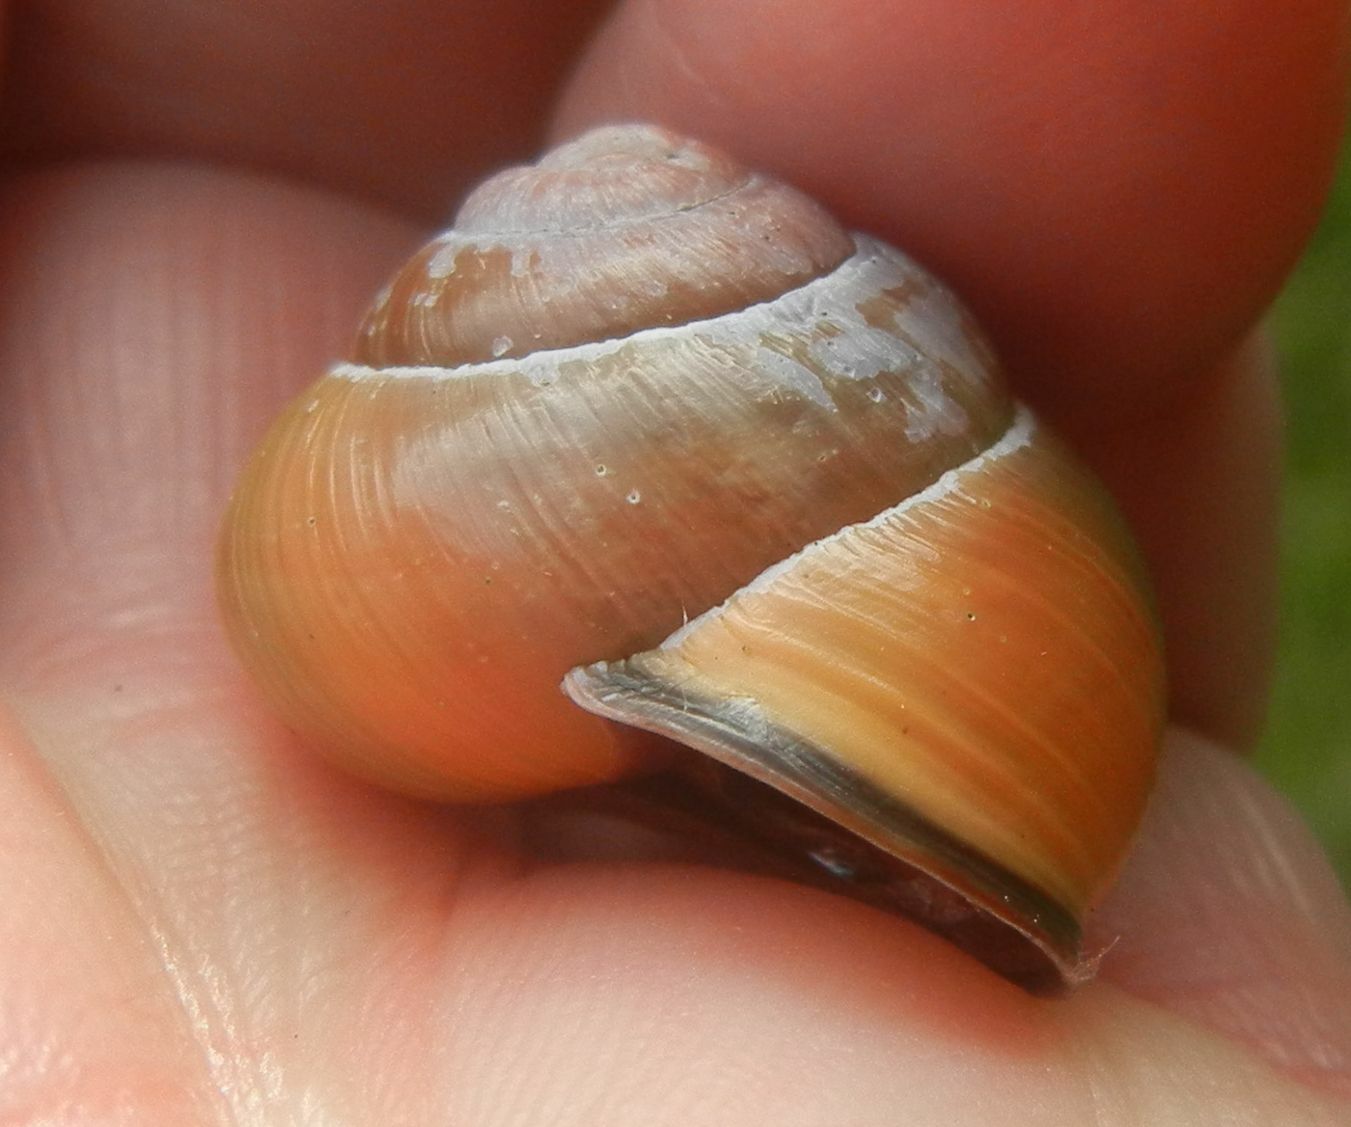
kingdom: Animalia
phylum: Mollusca
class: Gastropoda
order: Stylommatophora
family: Helicidae
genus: Cepaea
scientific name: Cepaea nemoralis
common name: Grovesnail
